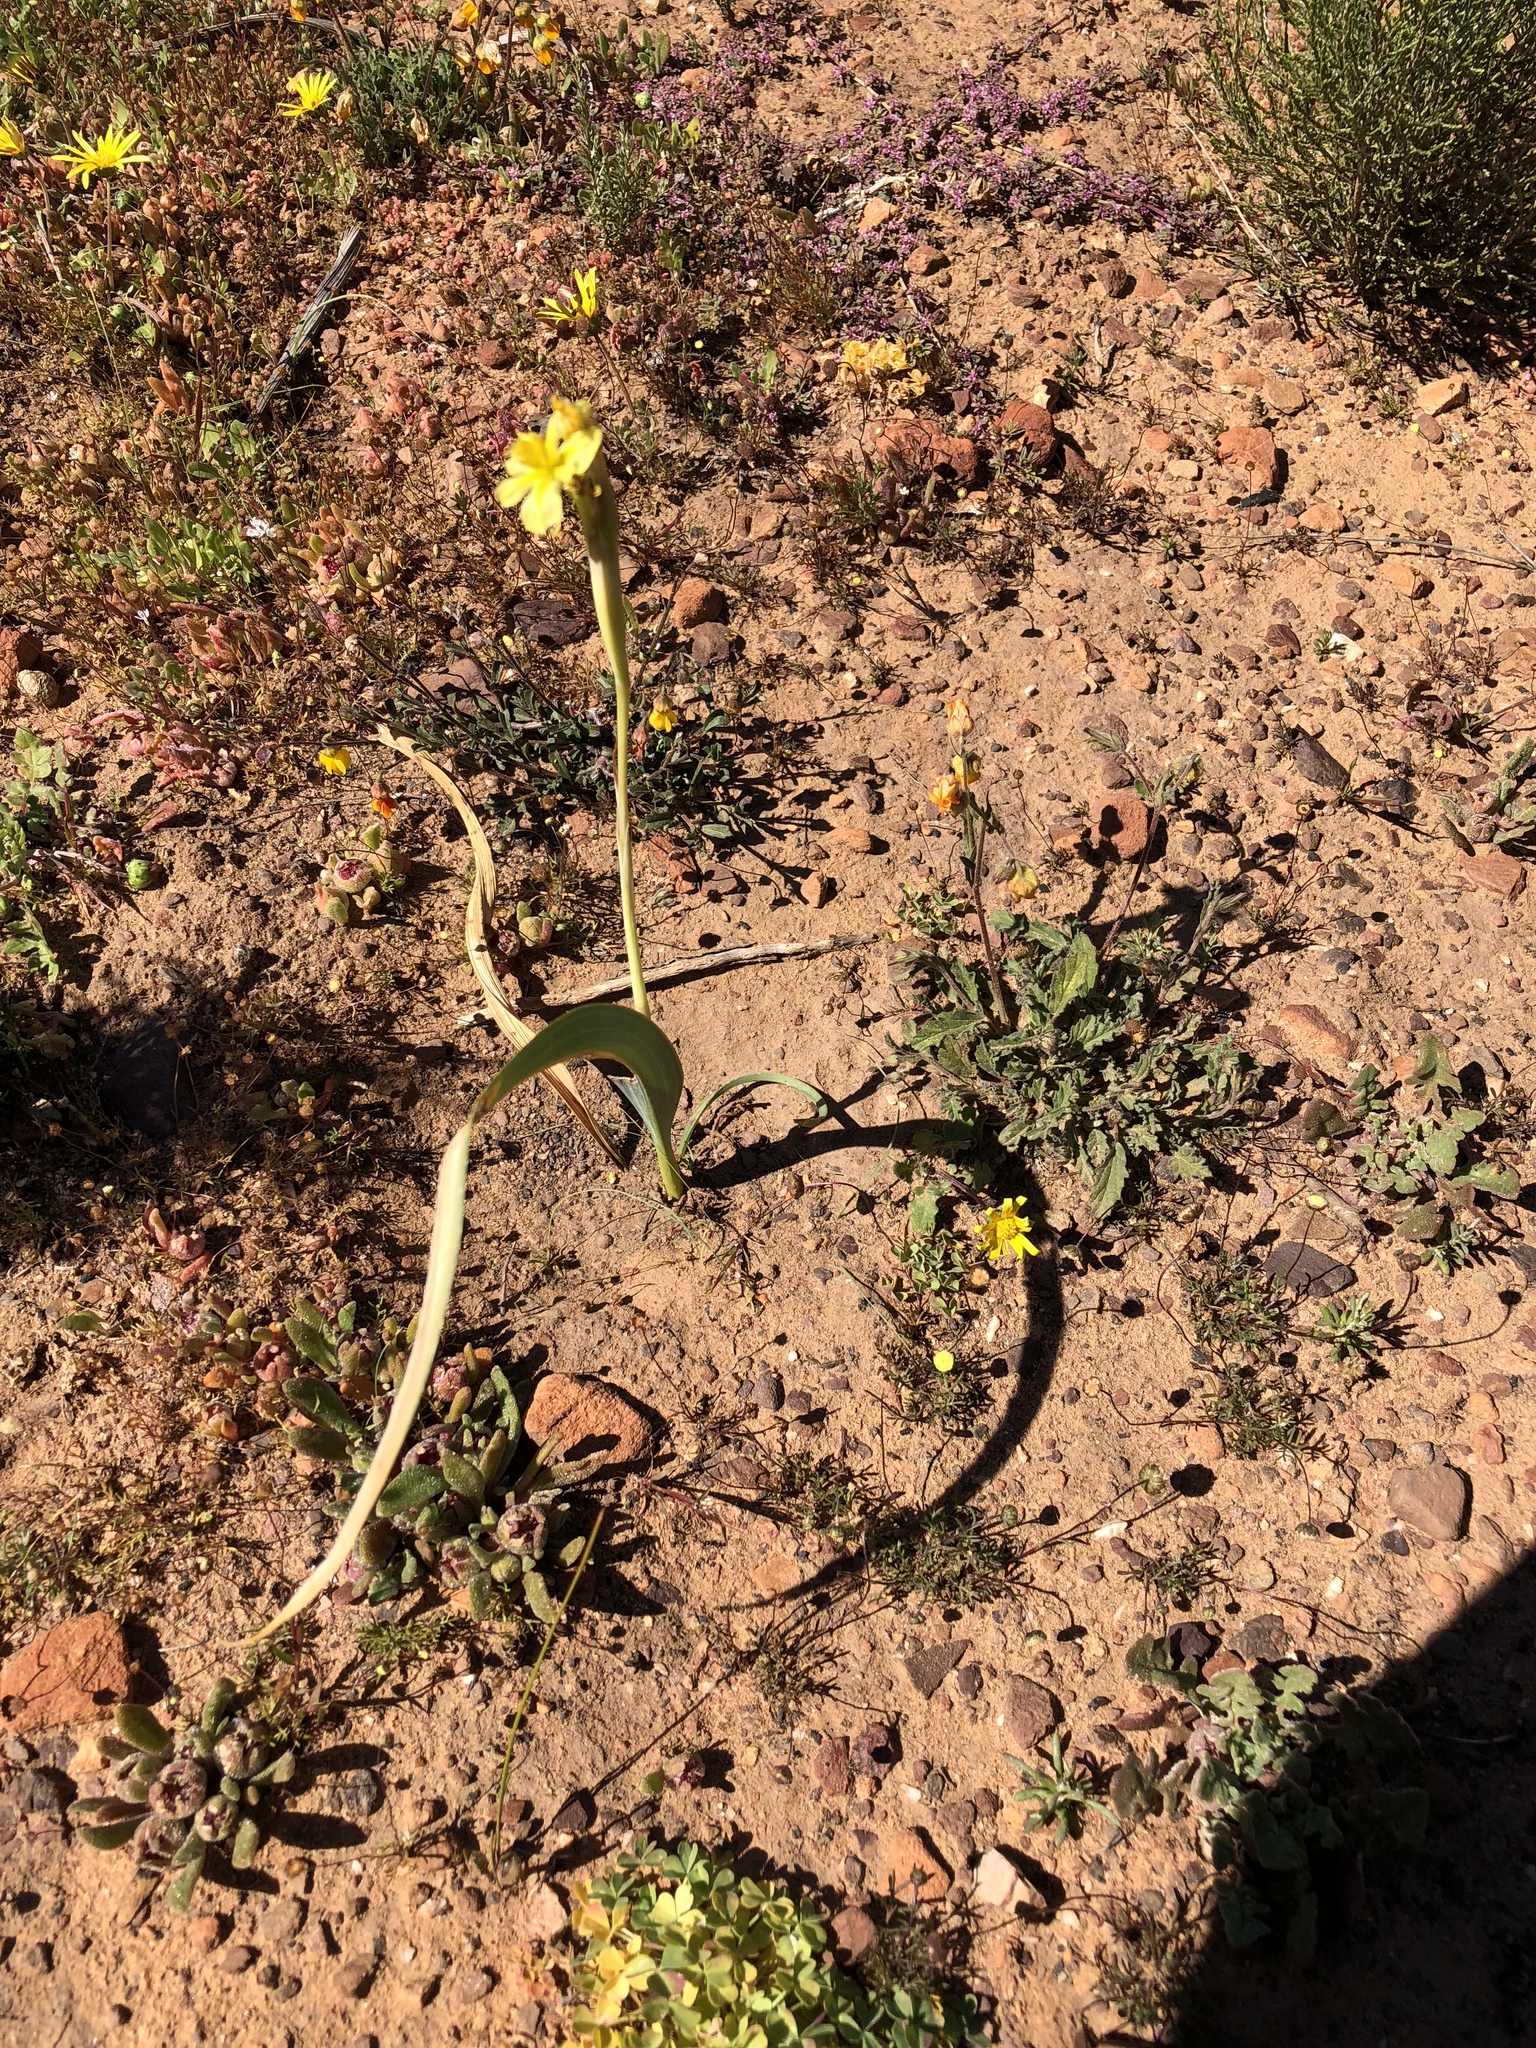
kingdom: Plantae
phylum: Tracheophyta
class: Liliopsida
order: Asparagales
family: Iridaceae
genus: Moraea
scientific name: Moraea cookii
